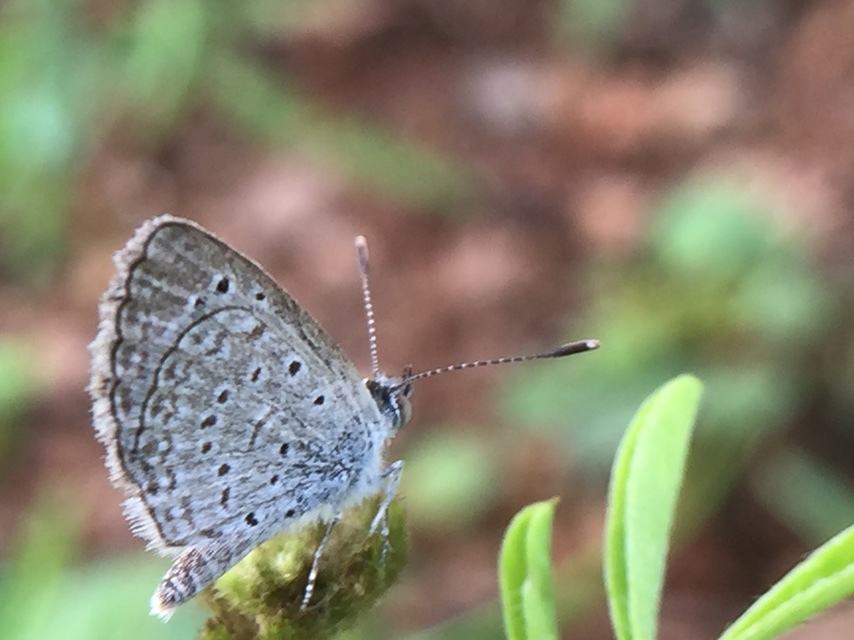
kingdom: Animalia
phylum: Arthropoda
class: Insecta
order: Lepidoptera
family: Lycaenidae
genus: Zizeeria
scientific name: Zizeeria karsandra
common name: Dark grass blue
